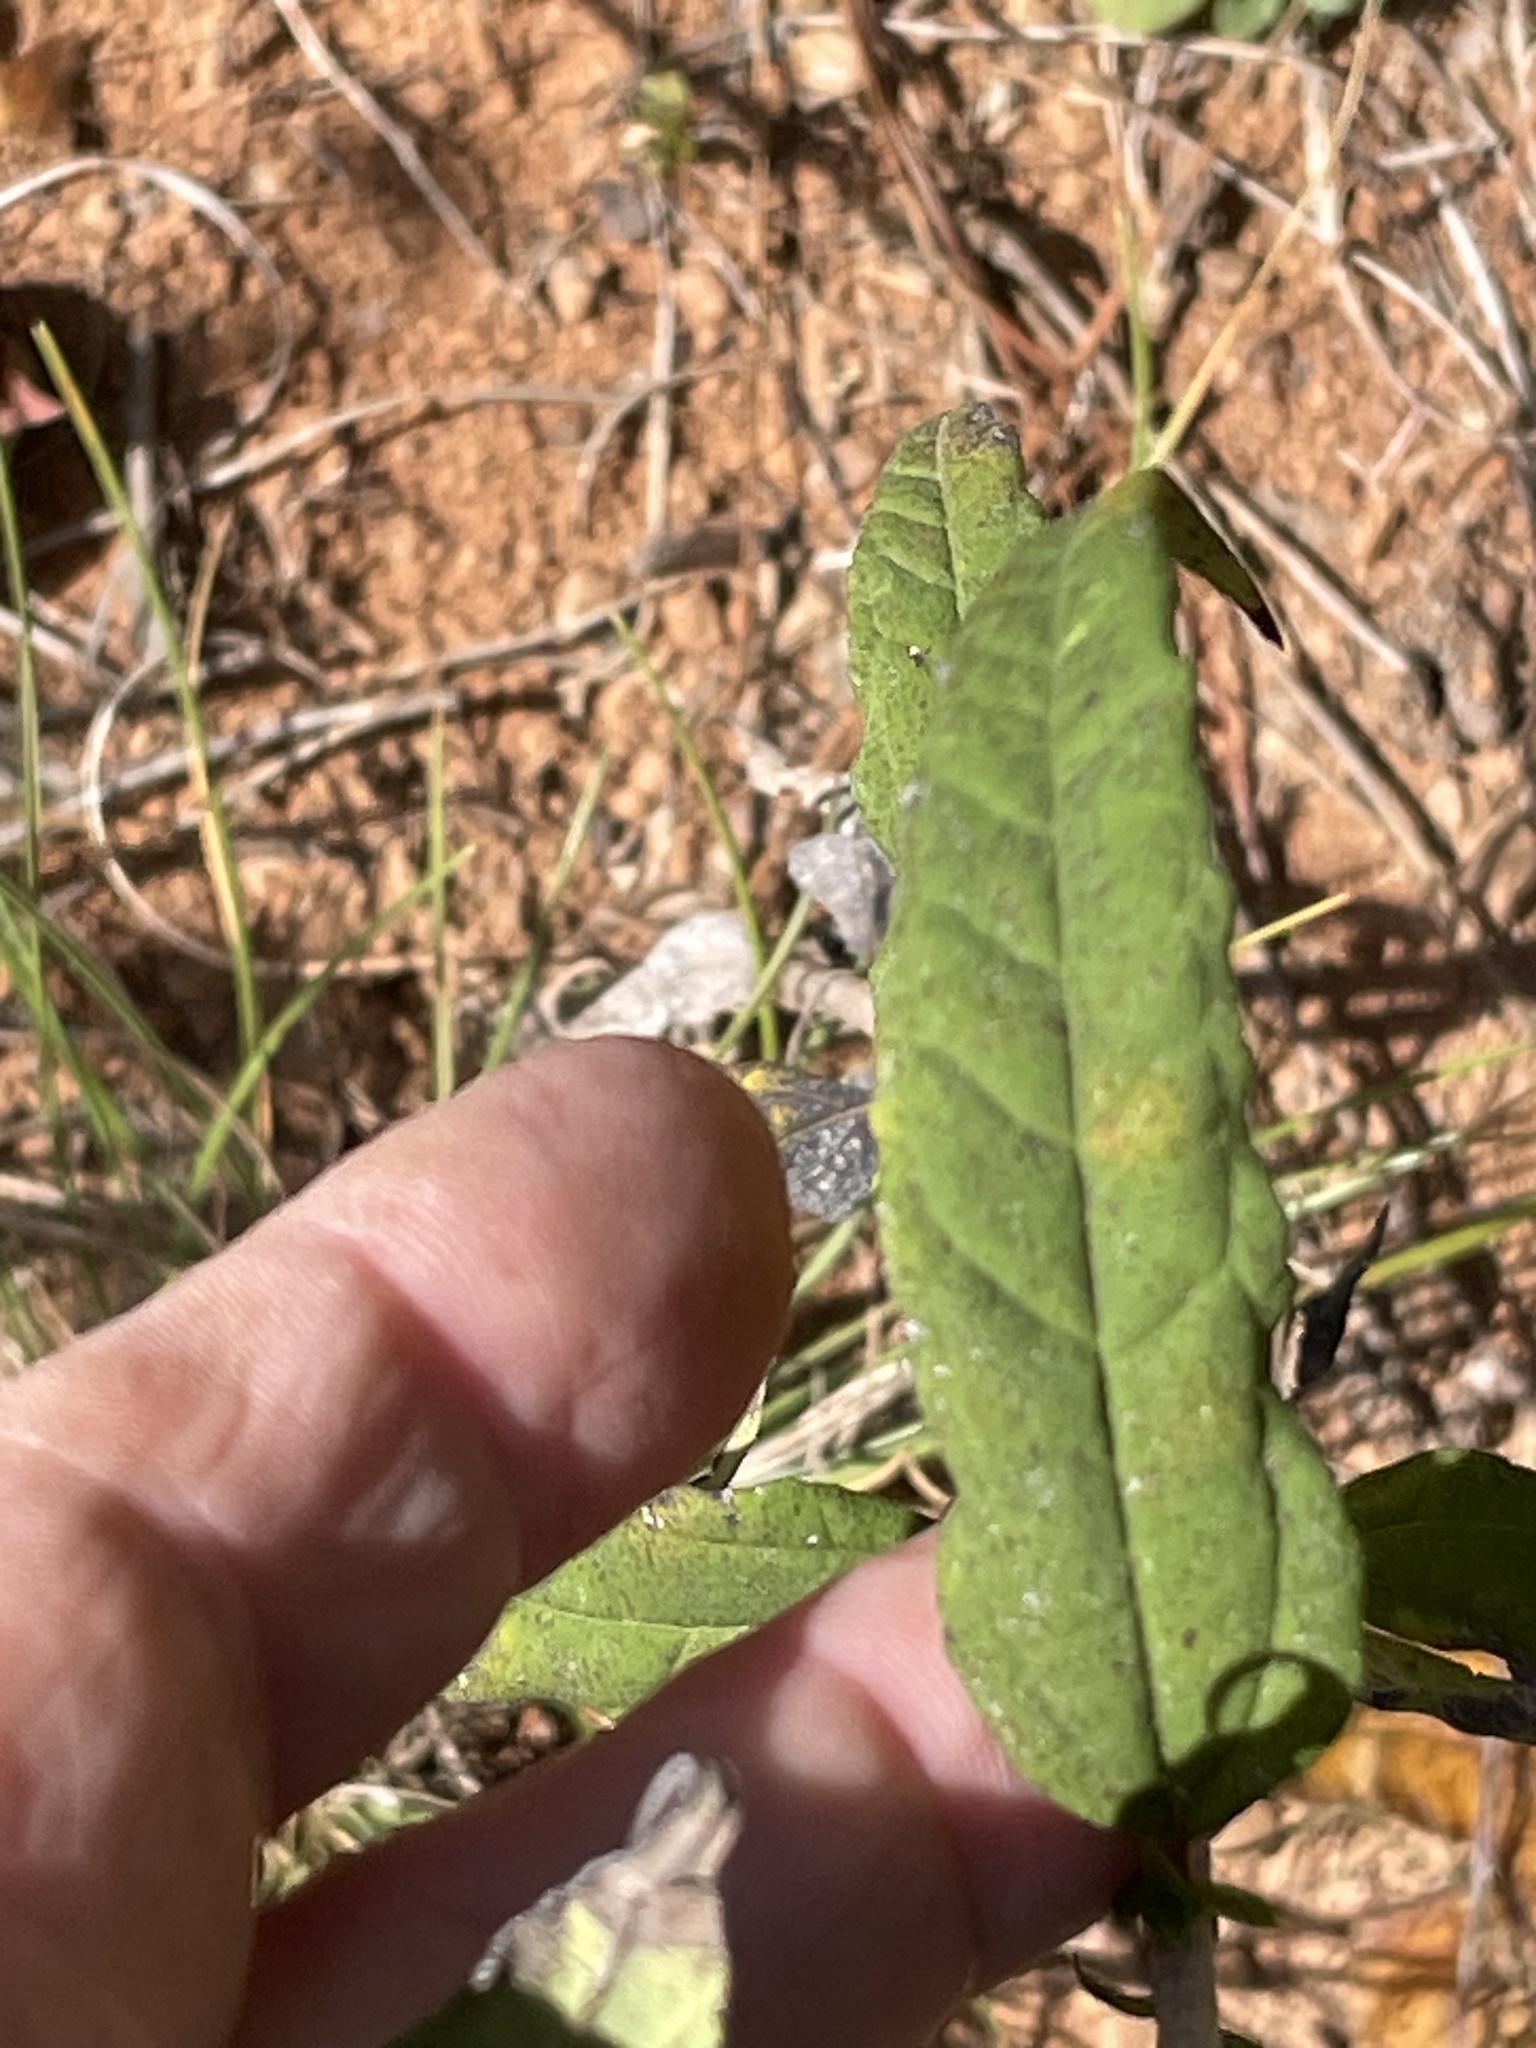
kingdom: Plantae
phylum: Tracheophyta
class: Magnoliopsida
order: Asterales
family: Asteraceae
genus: Helianthus
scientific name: Helianthus microcephalus
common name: Woodland sunflower
